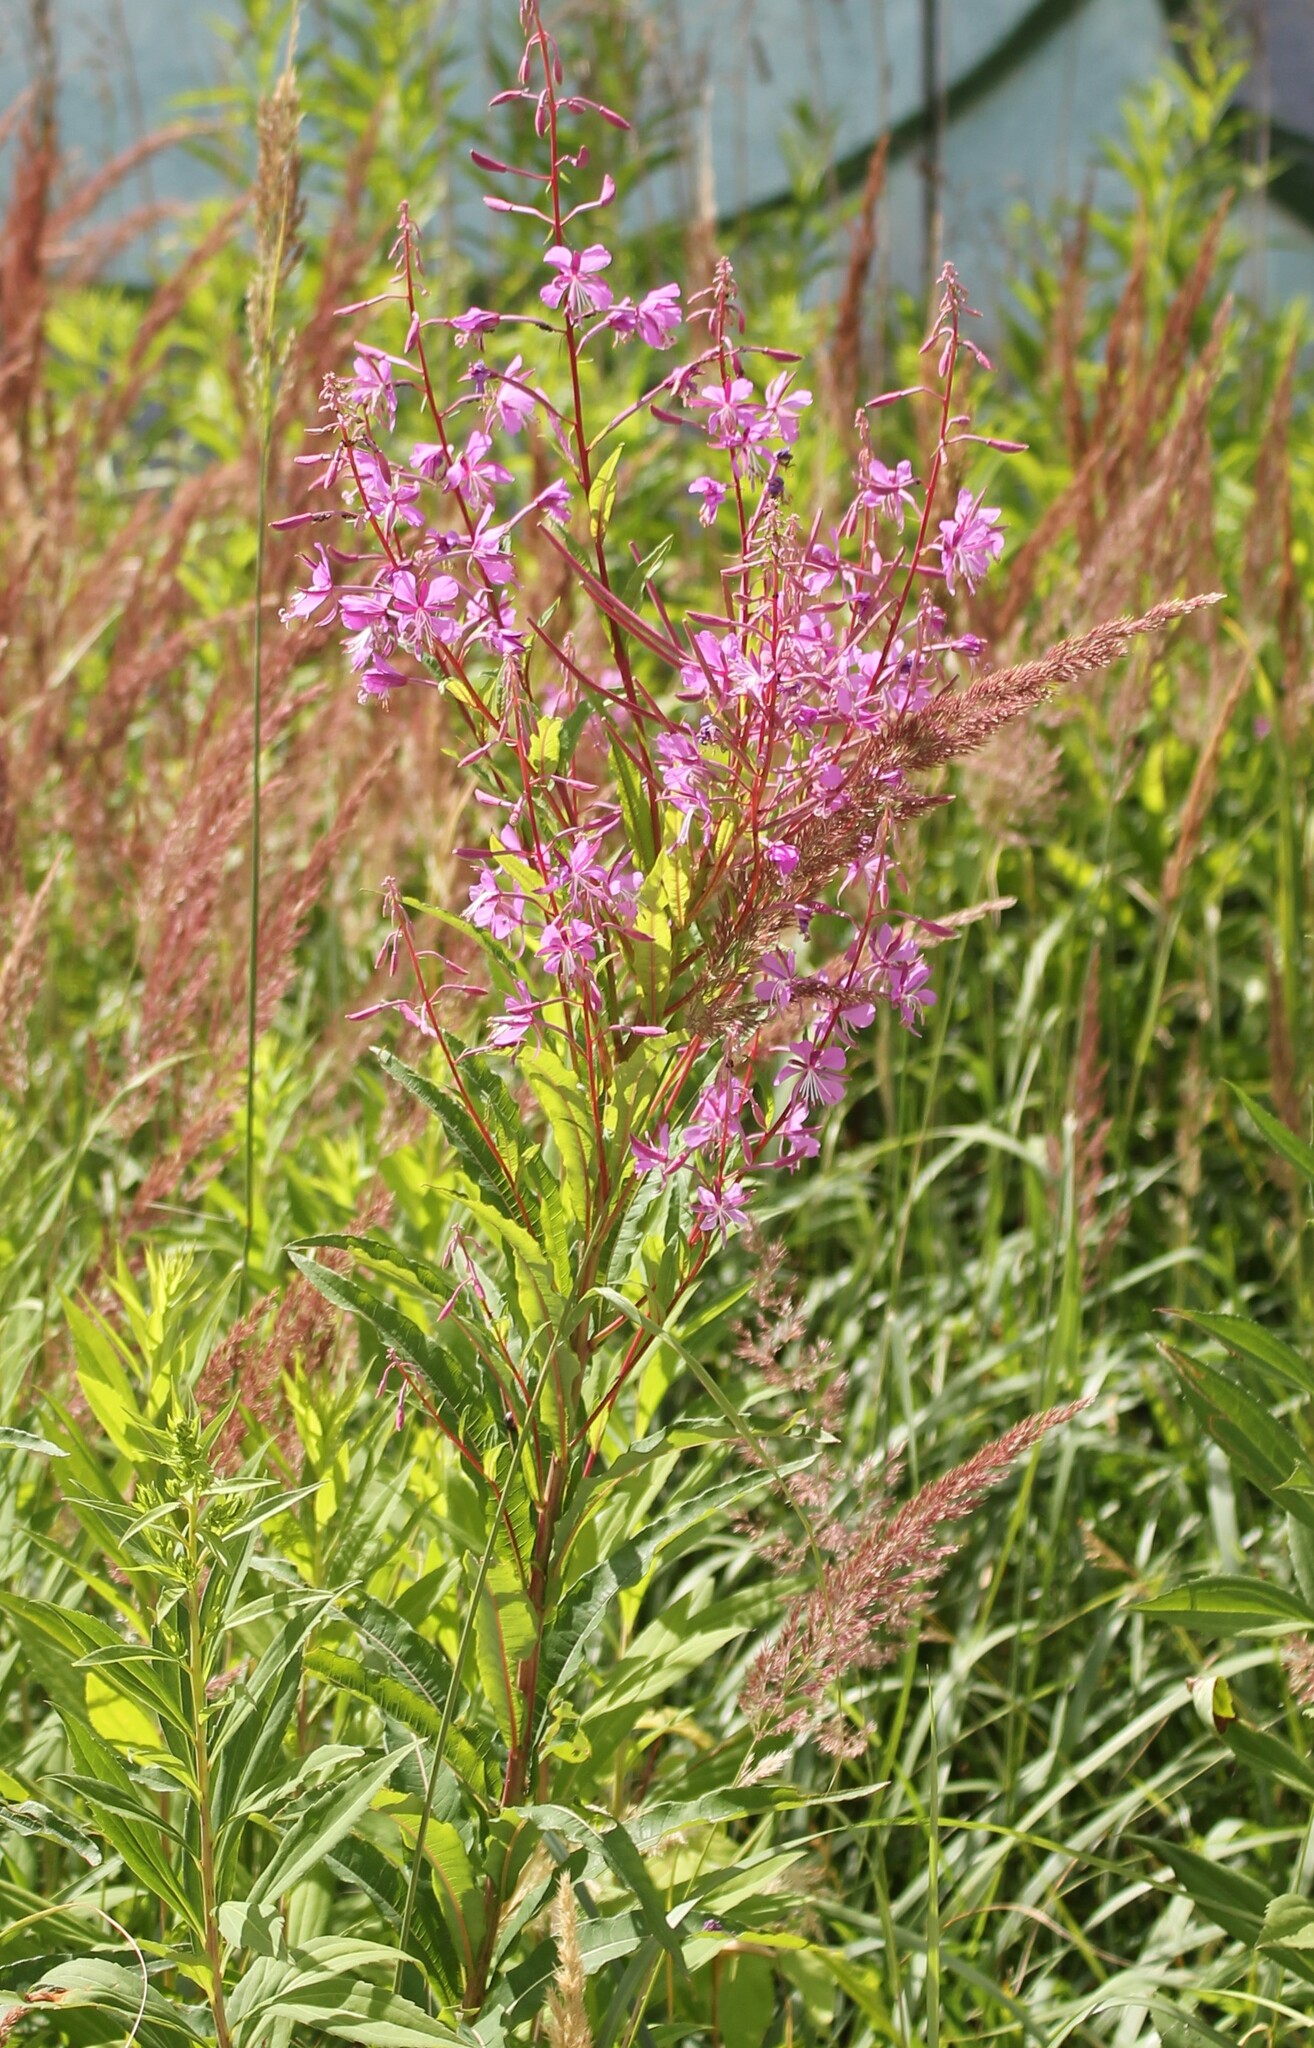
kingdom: Plantae
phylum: Tracheophyta
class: Magnoliopsida
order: Myrtales
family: Onagraceae
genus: Chamaenerion
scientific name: Chamaenerion angustifolium
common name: Fireweed
